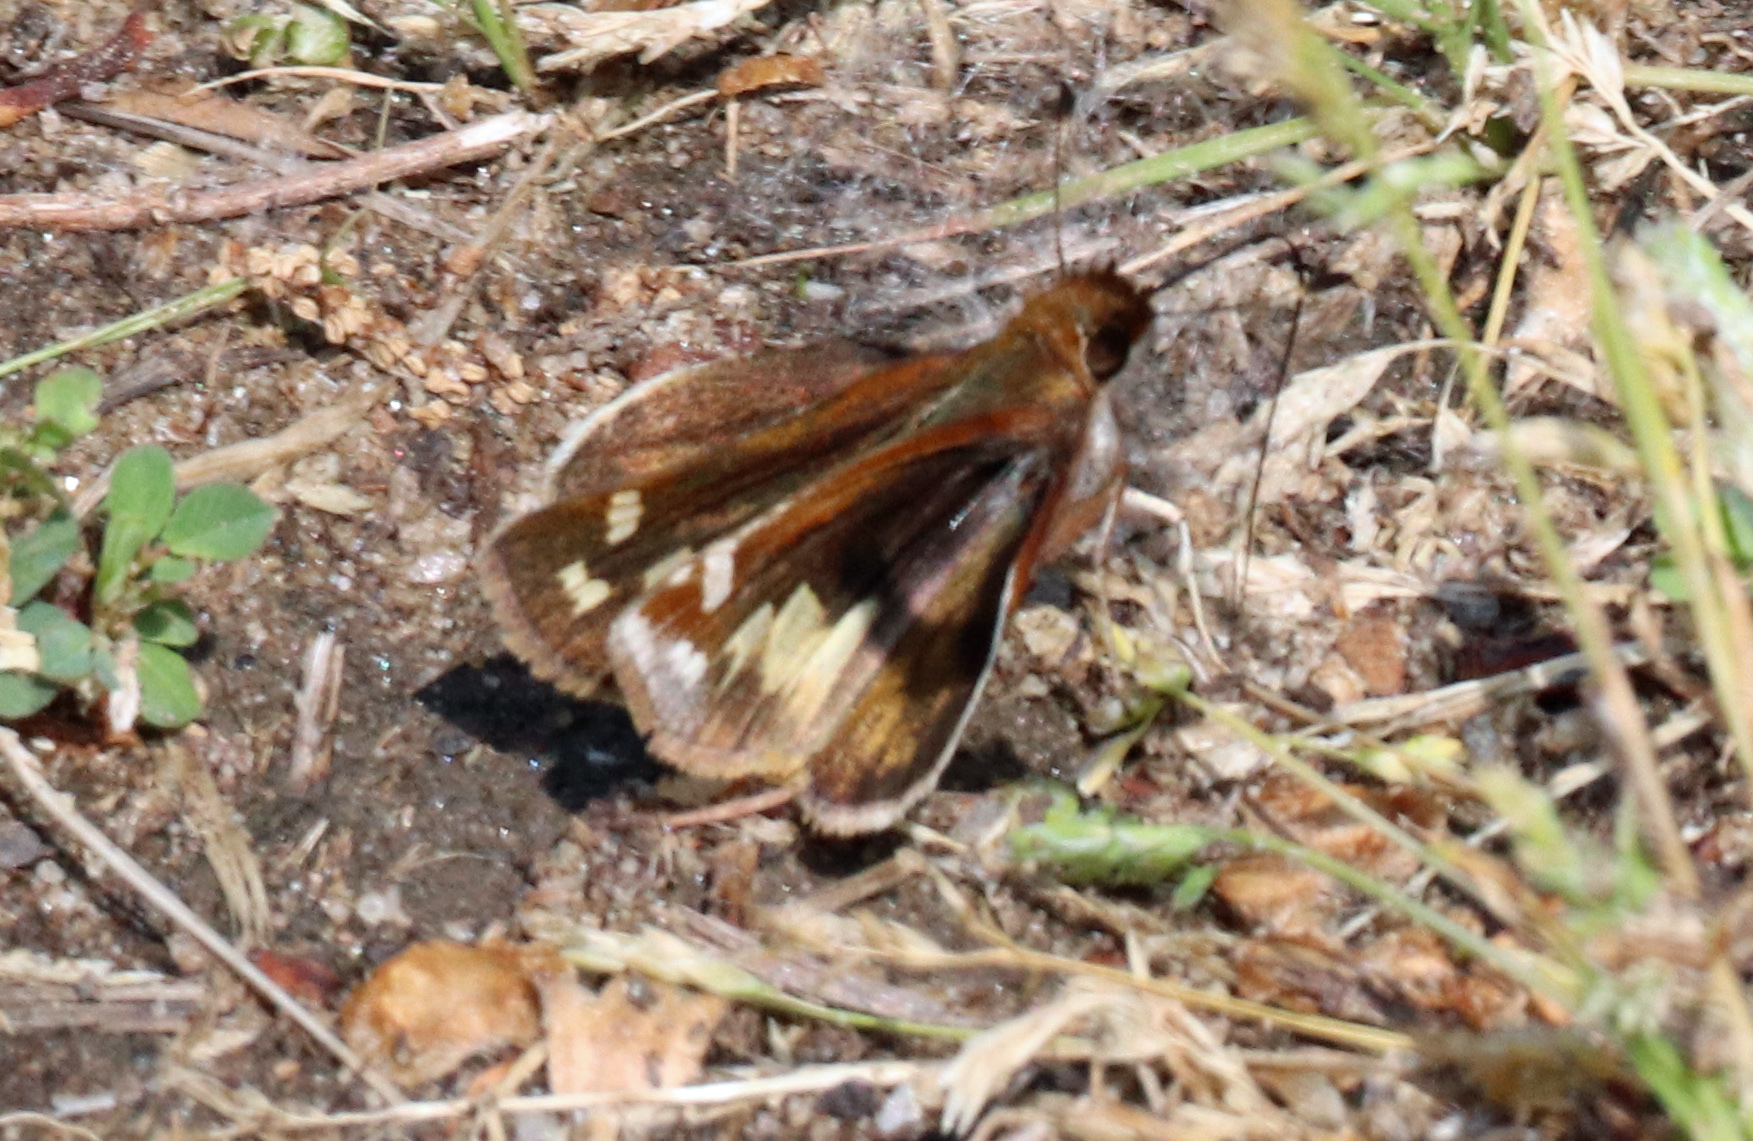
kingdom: Animalia
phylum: Arthropoda
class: Insecta
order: Lepidoptera
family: Hesperiidae
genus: Lon
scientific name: Lon zabulon
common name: Zabulon skipper
